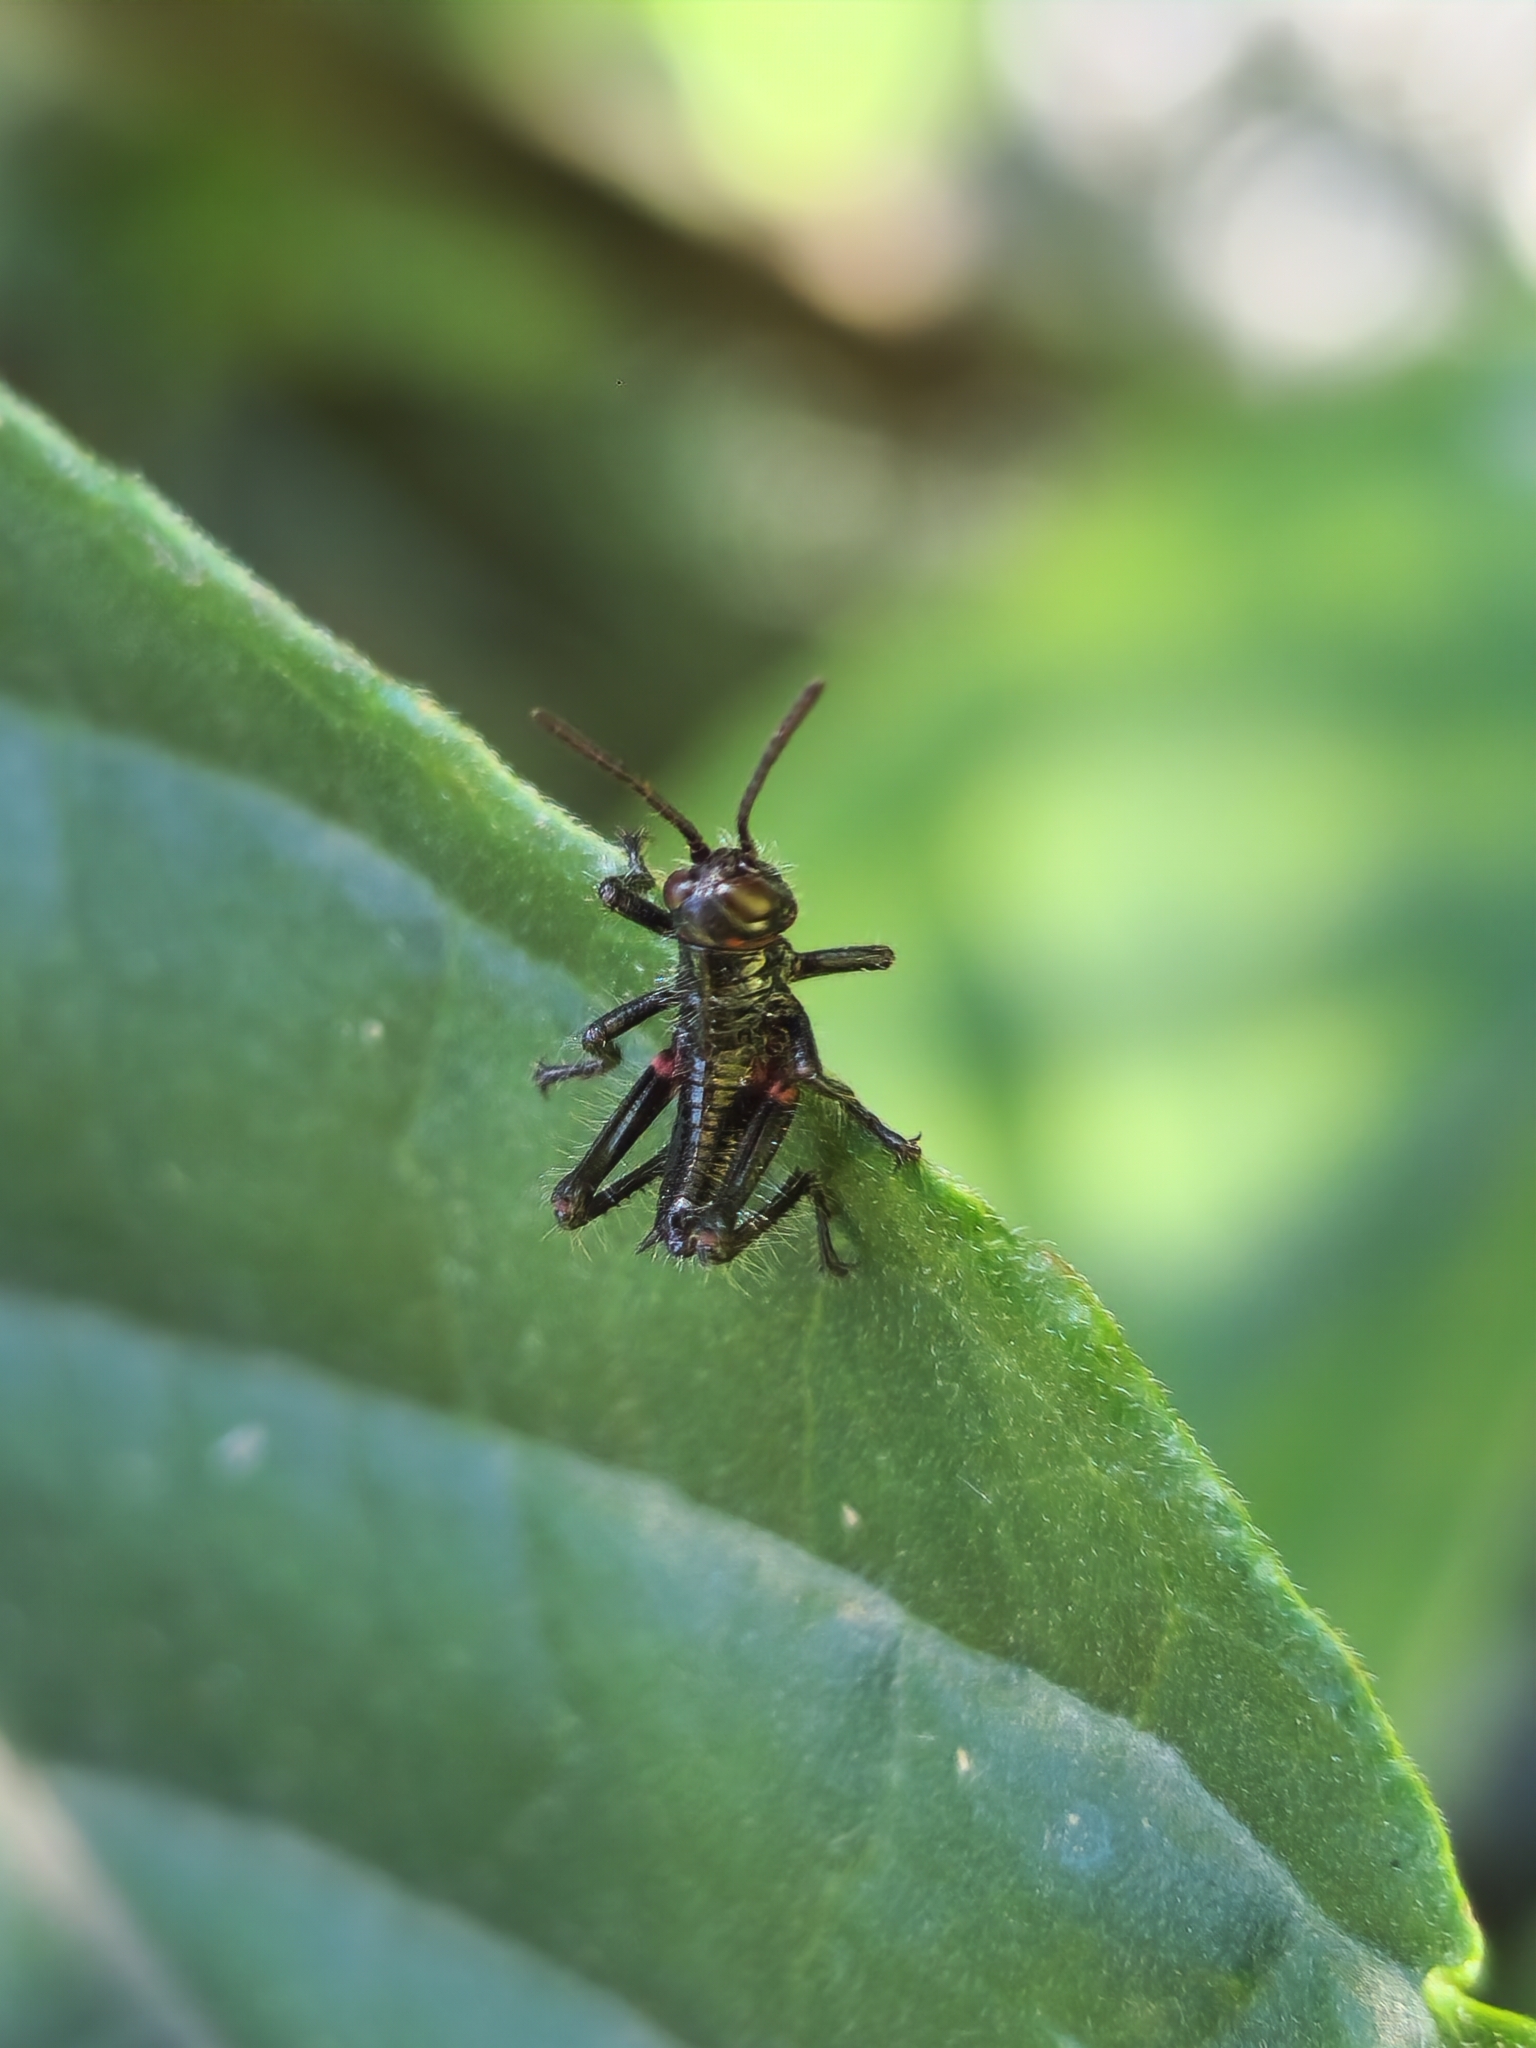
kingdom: Animalia
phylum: Arthropoda
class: Insecta
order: Orthoptera
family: Romaleidae
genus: Chromacris
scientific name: Chromacris speciosa
